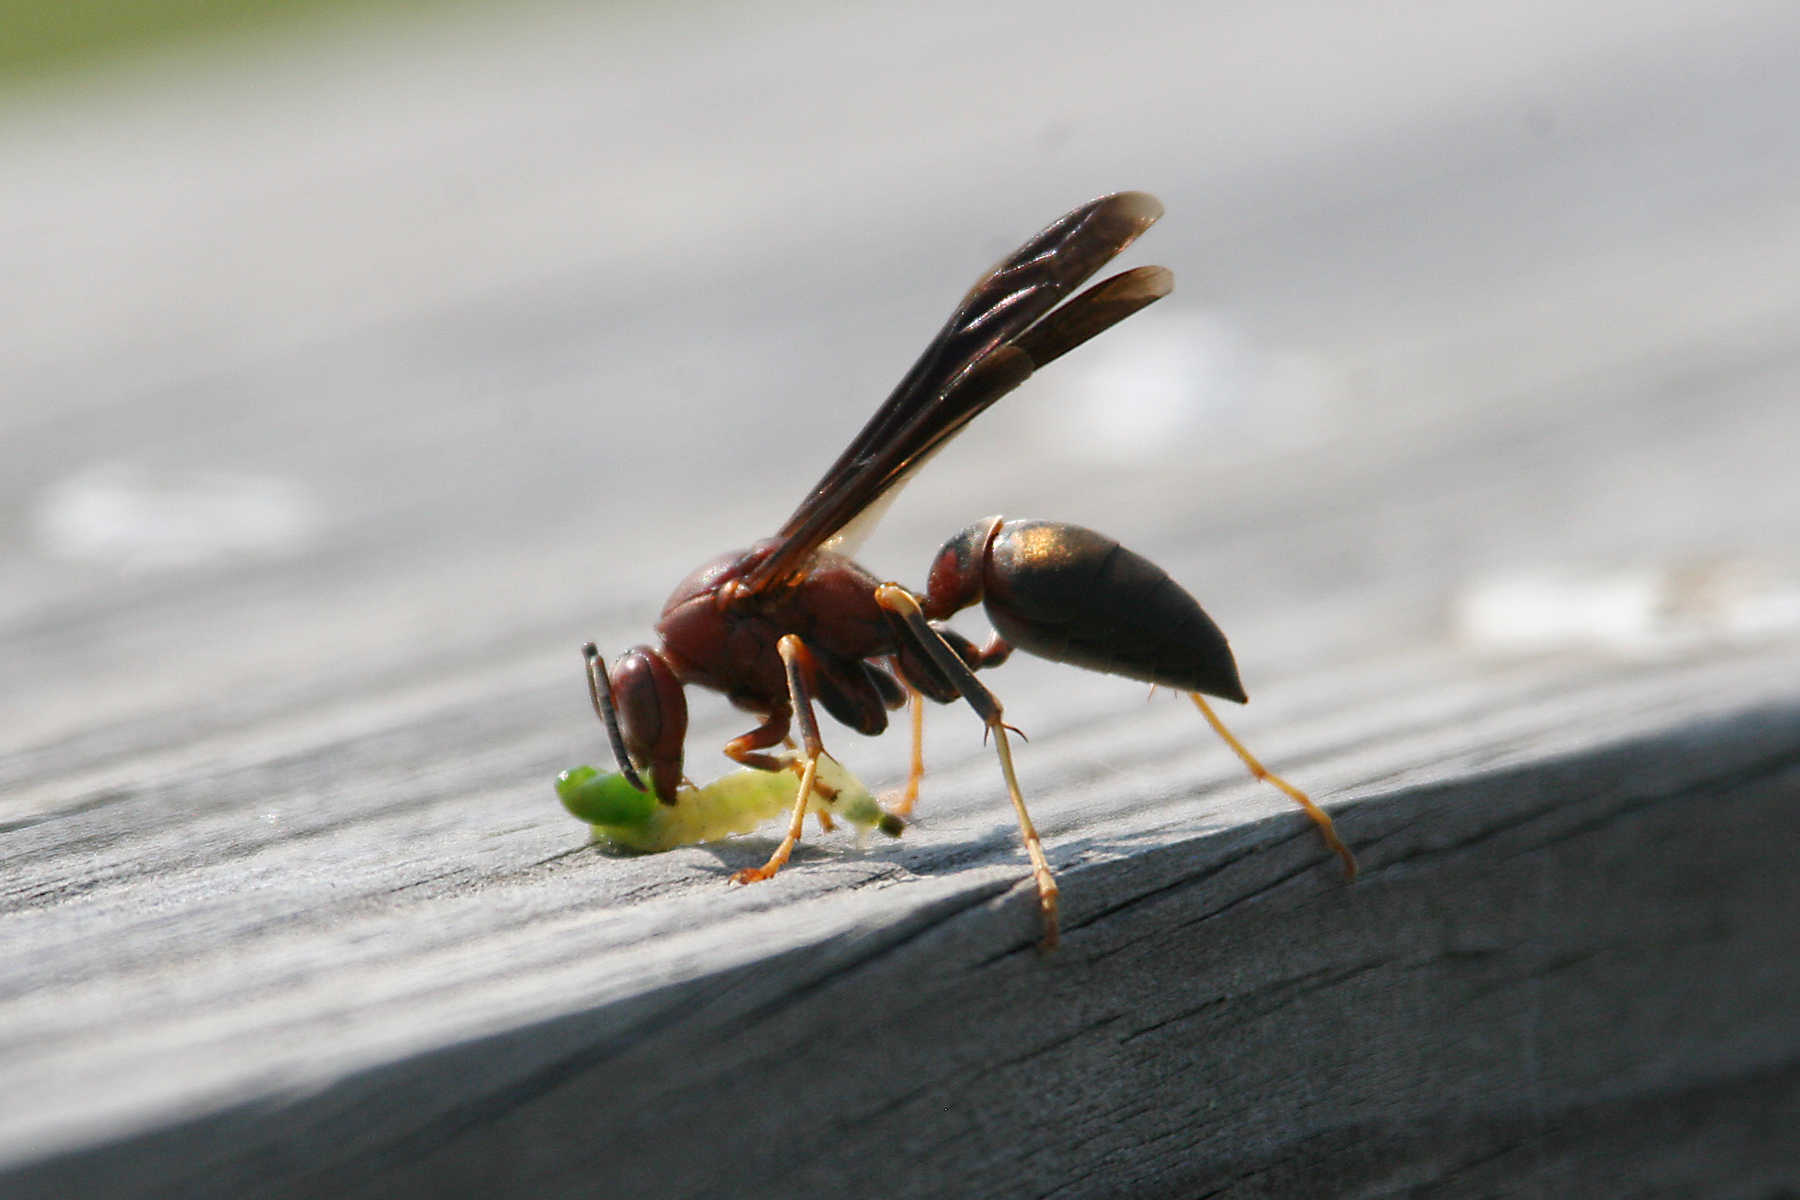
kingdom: Animalia
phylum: Arthropoda
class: Insecta
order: Hymenoptera
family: Eumenidae
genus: Polistes
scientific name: Polistes metricus
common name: Metric paper wasp
